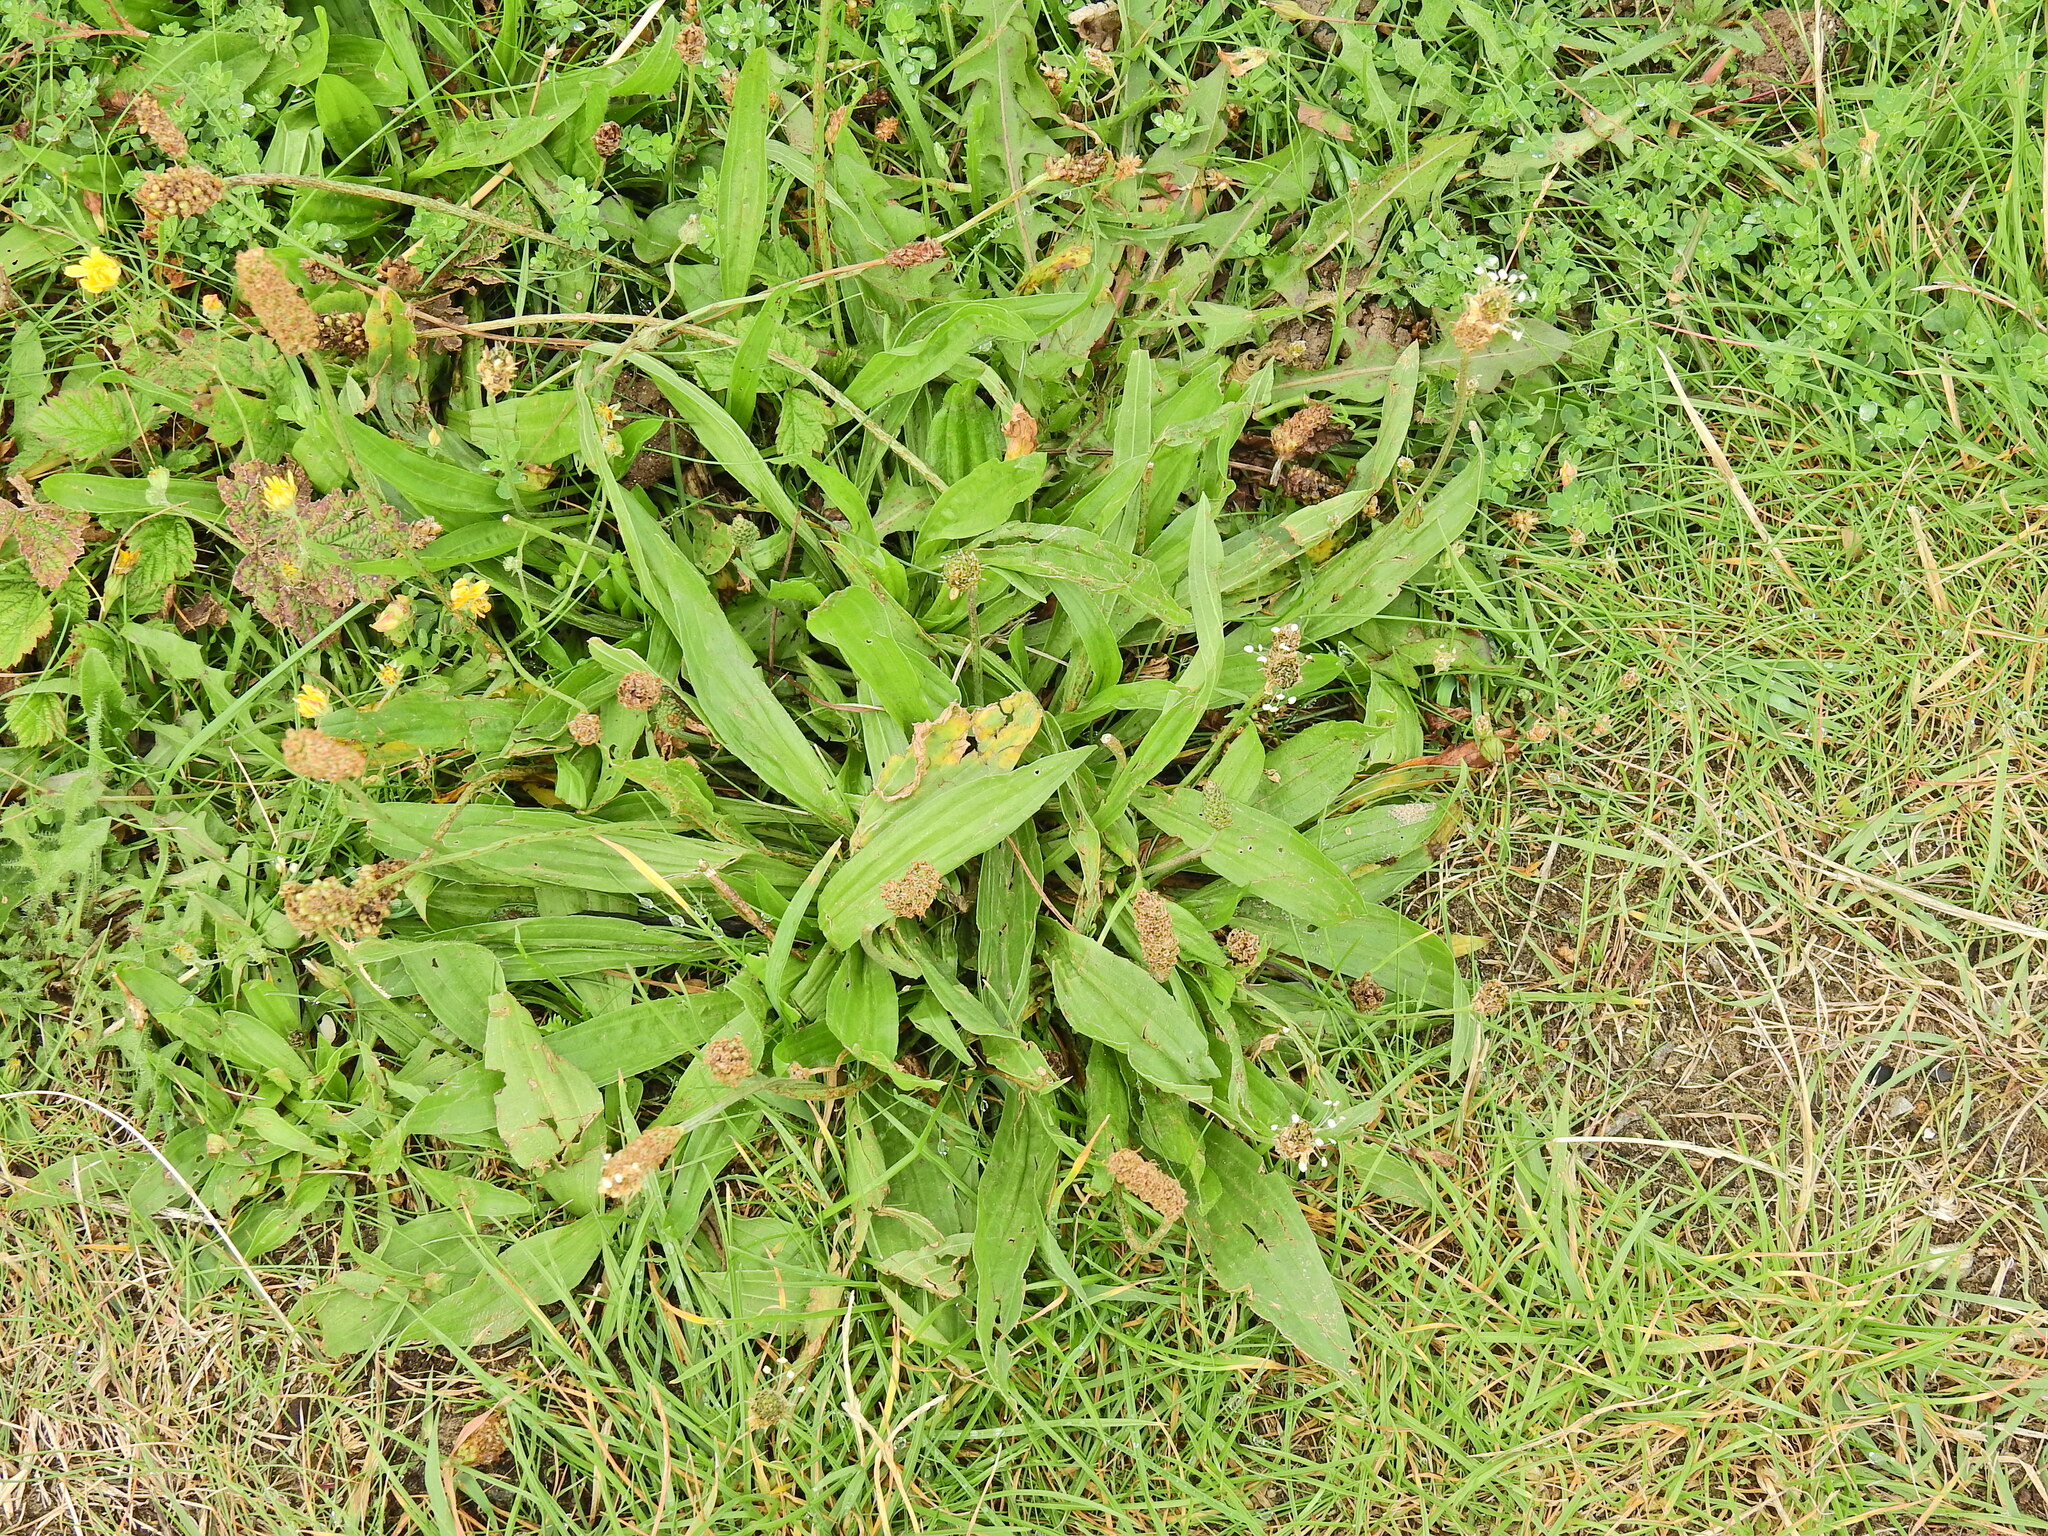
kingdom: Plantae
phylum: Tracheophyta
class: Magnoliopsida
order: Lamiales
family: Plantaginaceae
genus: Plantago
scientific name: Plantago lanceolata
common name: Ribwort plantain
